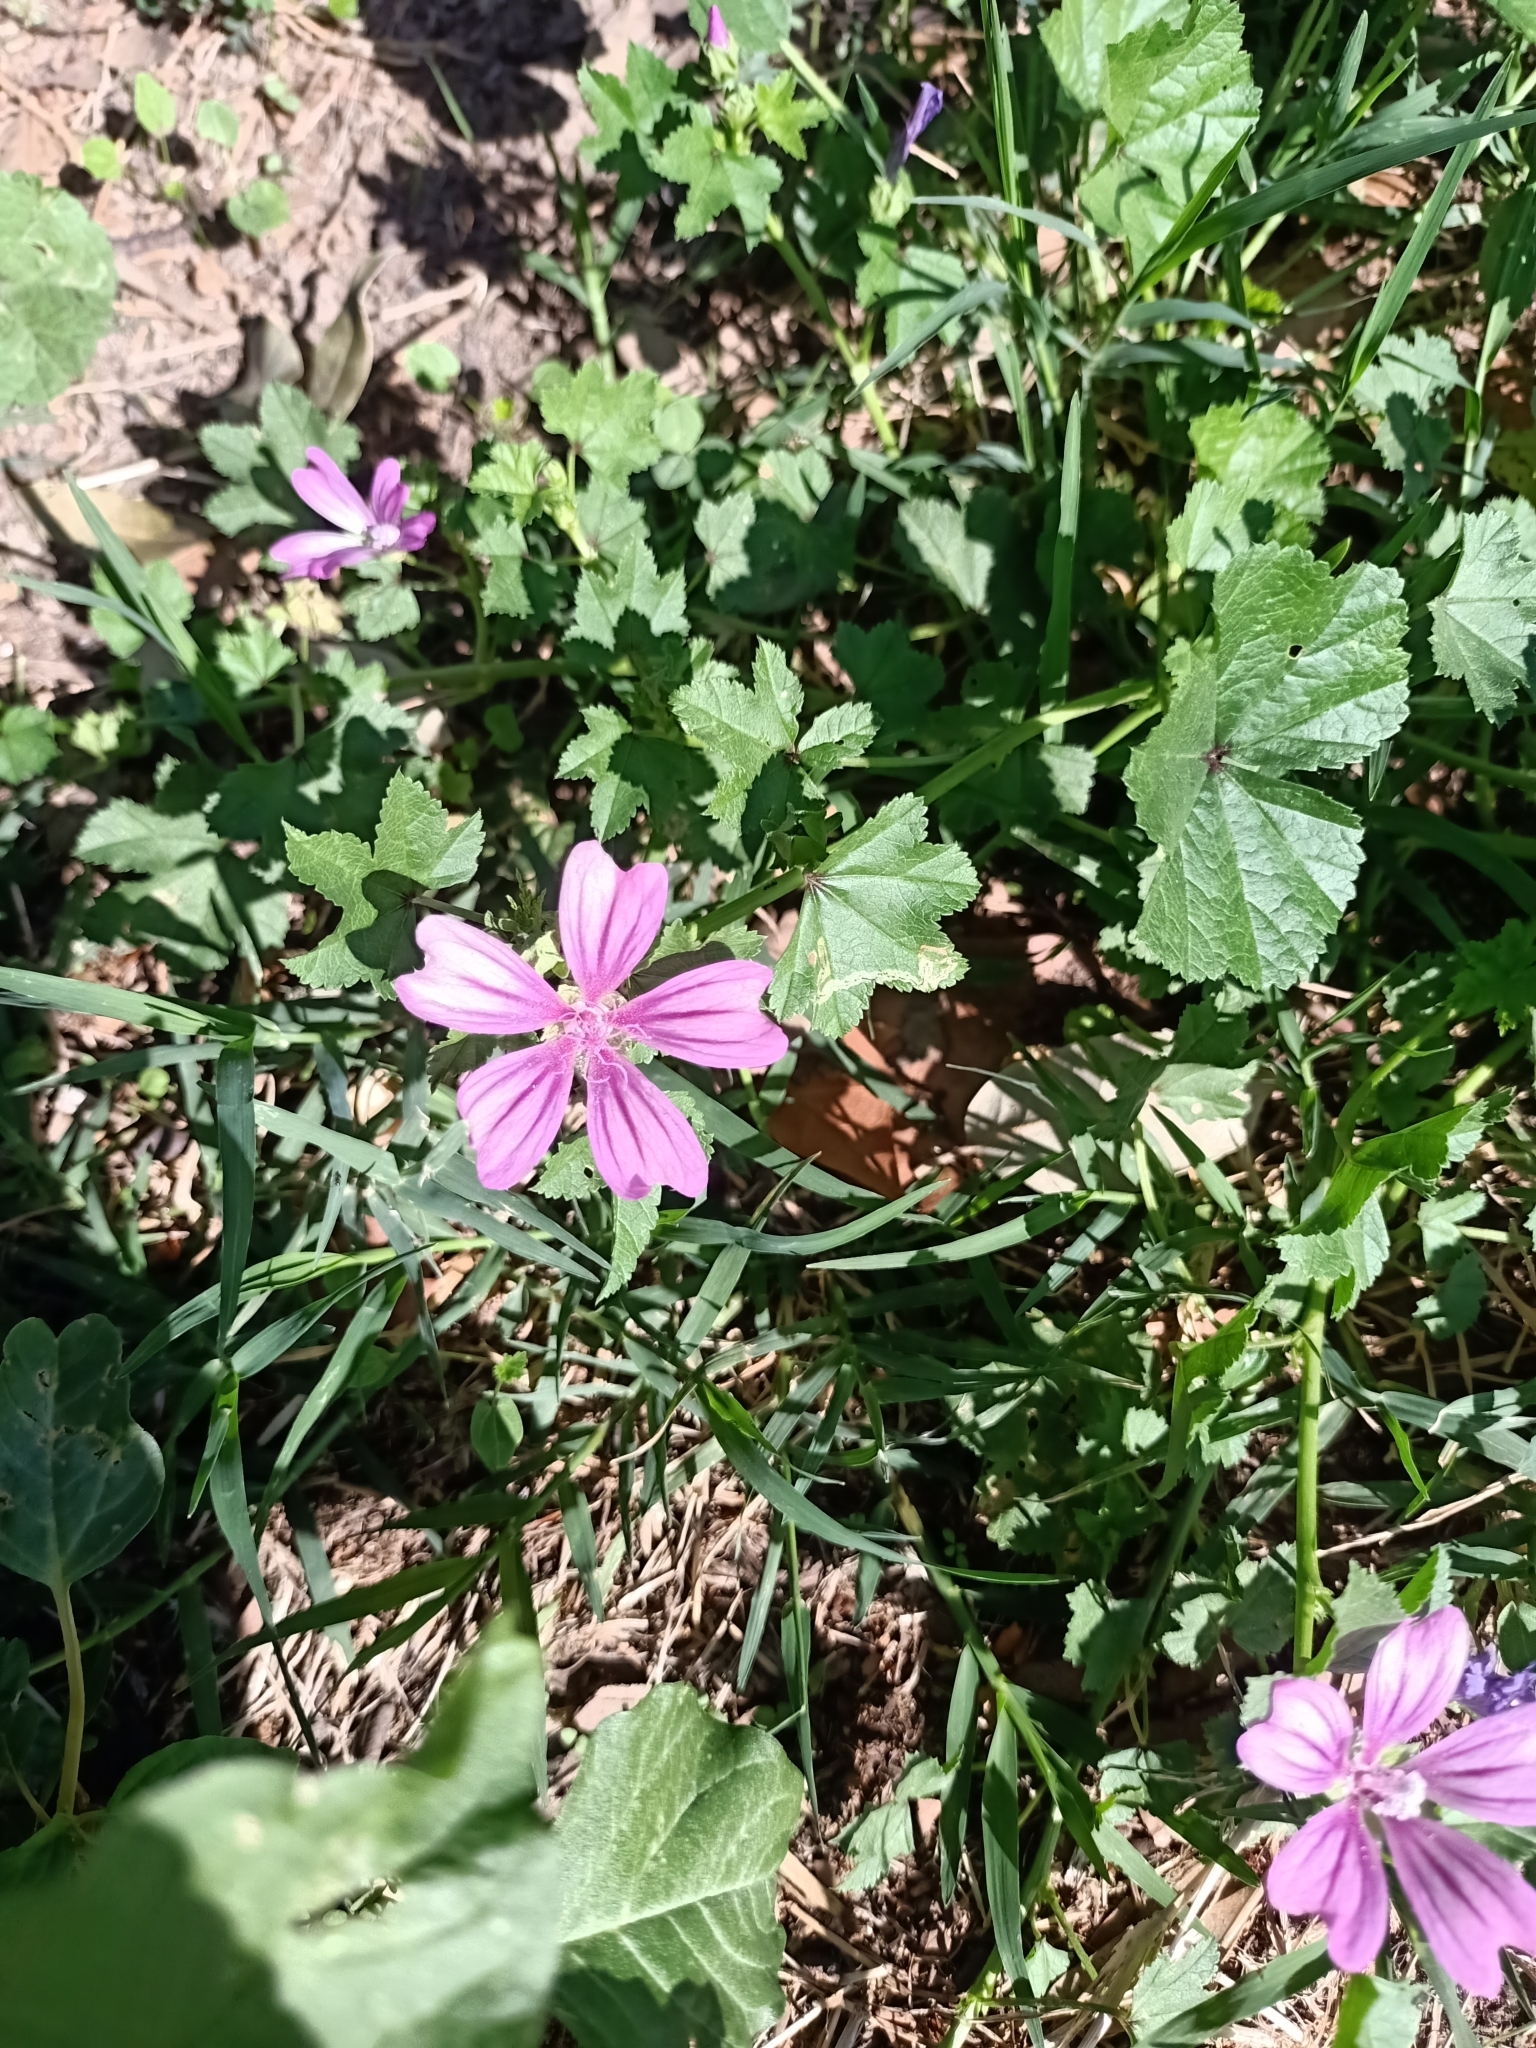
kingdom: Plantae
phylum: Tracheophyta
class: Magnoliopsida
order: Malvales
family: Malvaceae
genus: Malva
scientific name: Malva sylvestris
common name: Common mallow
